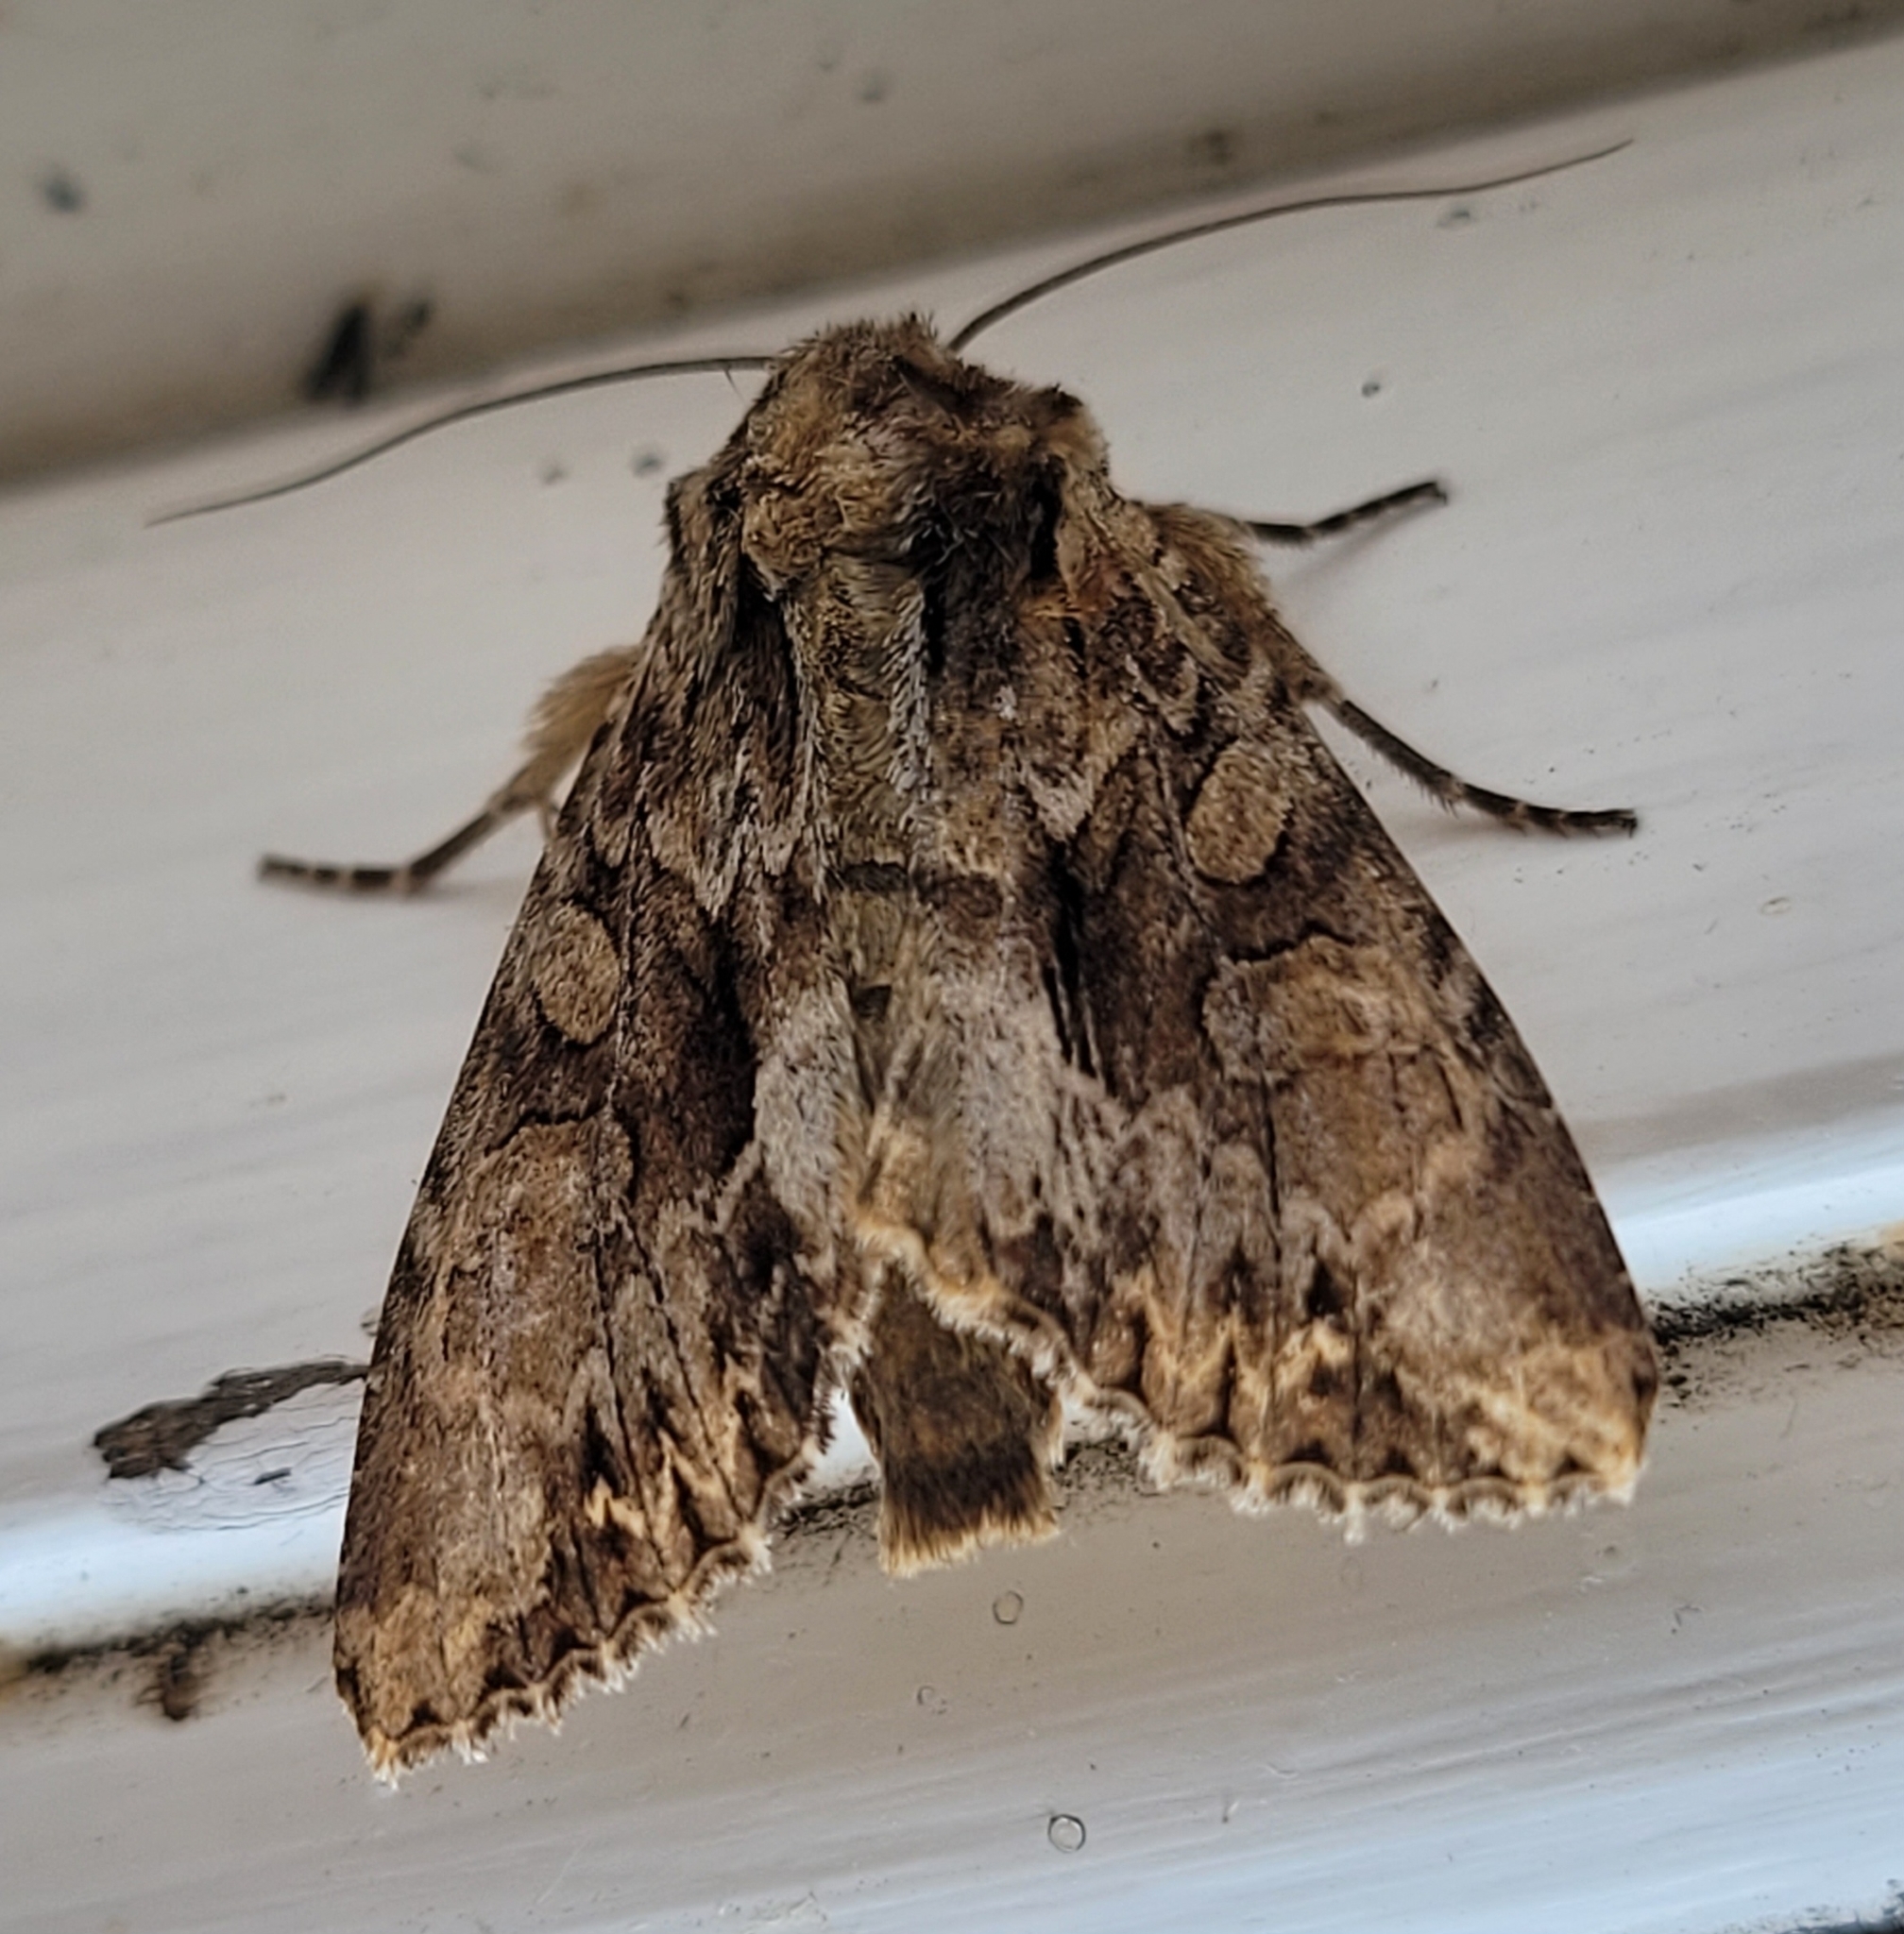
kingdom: Animalia
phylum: Arthropoda
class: Insecta
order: Lepidoptera
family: Noctuidae
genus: Apamea
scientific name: Apamea monoglypha
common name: Dark arches
